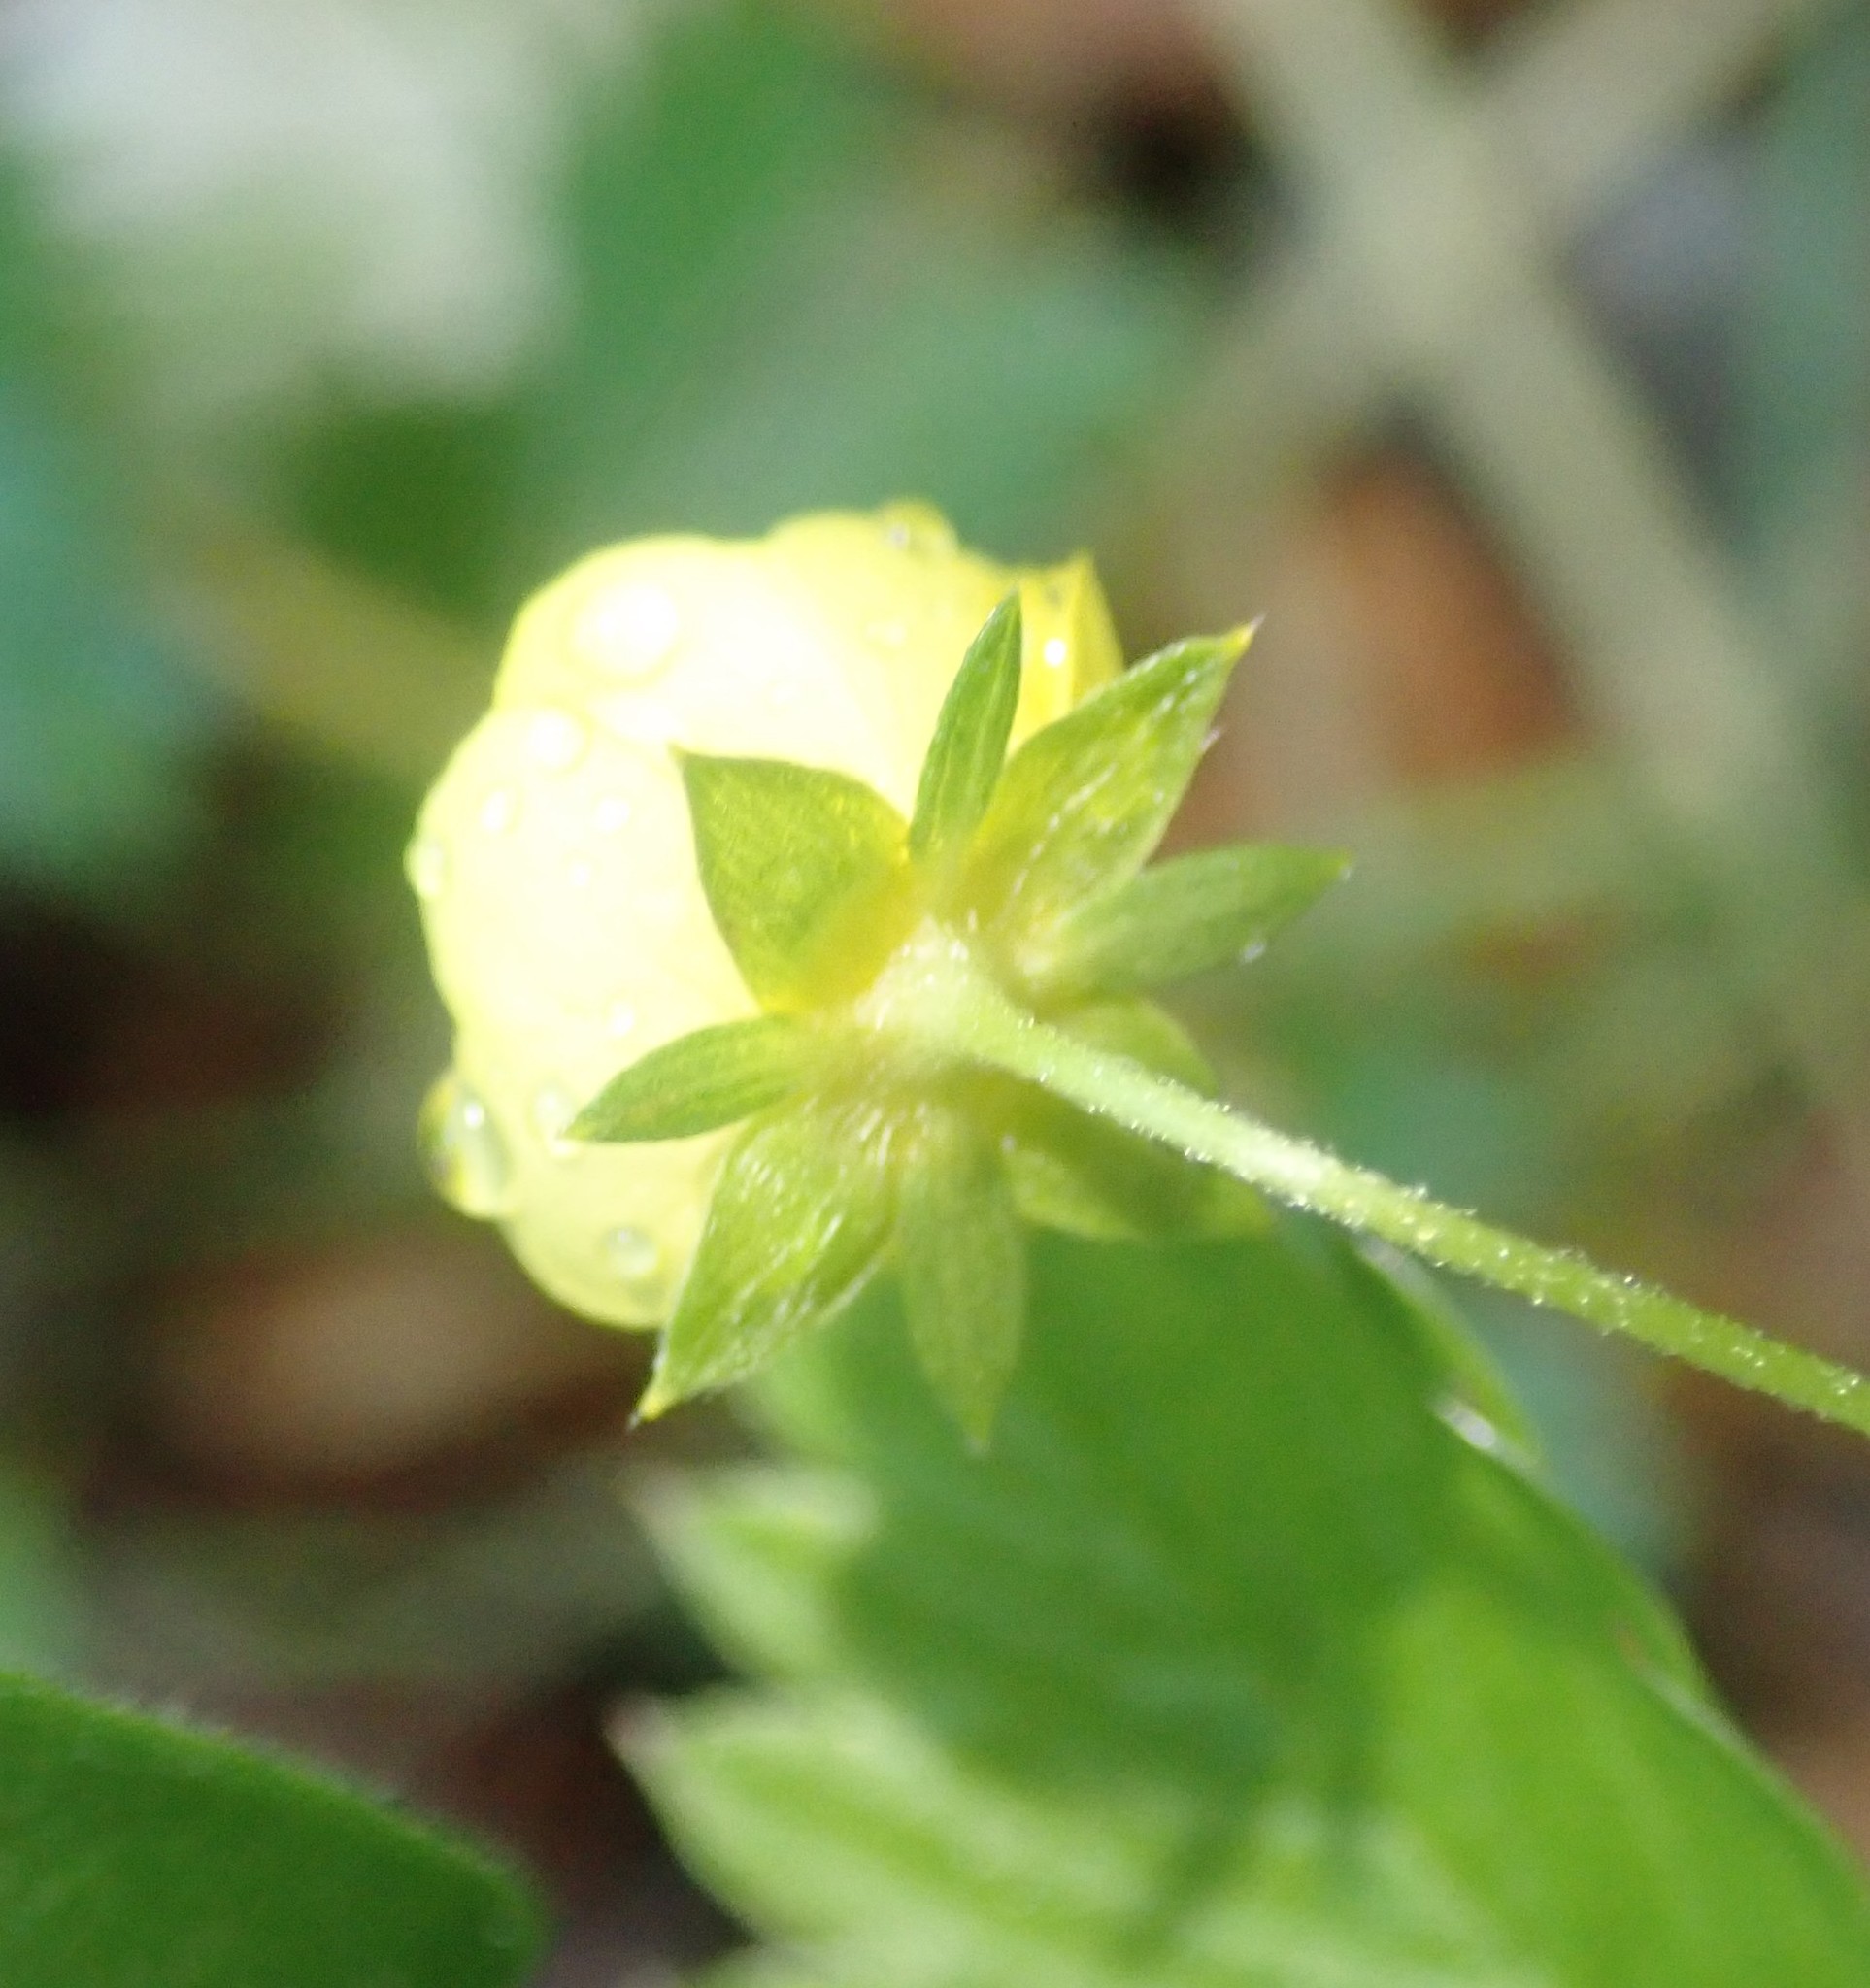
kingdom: Plantae
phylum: Tracheophyta
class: Magnoliopsida
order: Rosales
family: Rosaceae
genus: Potentilla
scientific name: Potentilla erecta
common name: Tormentil
